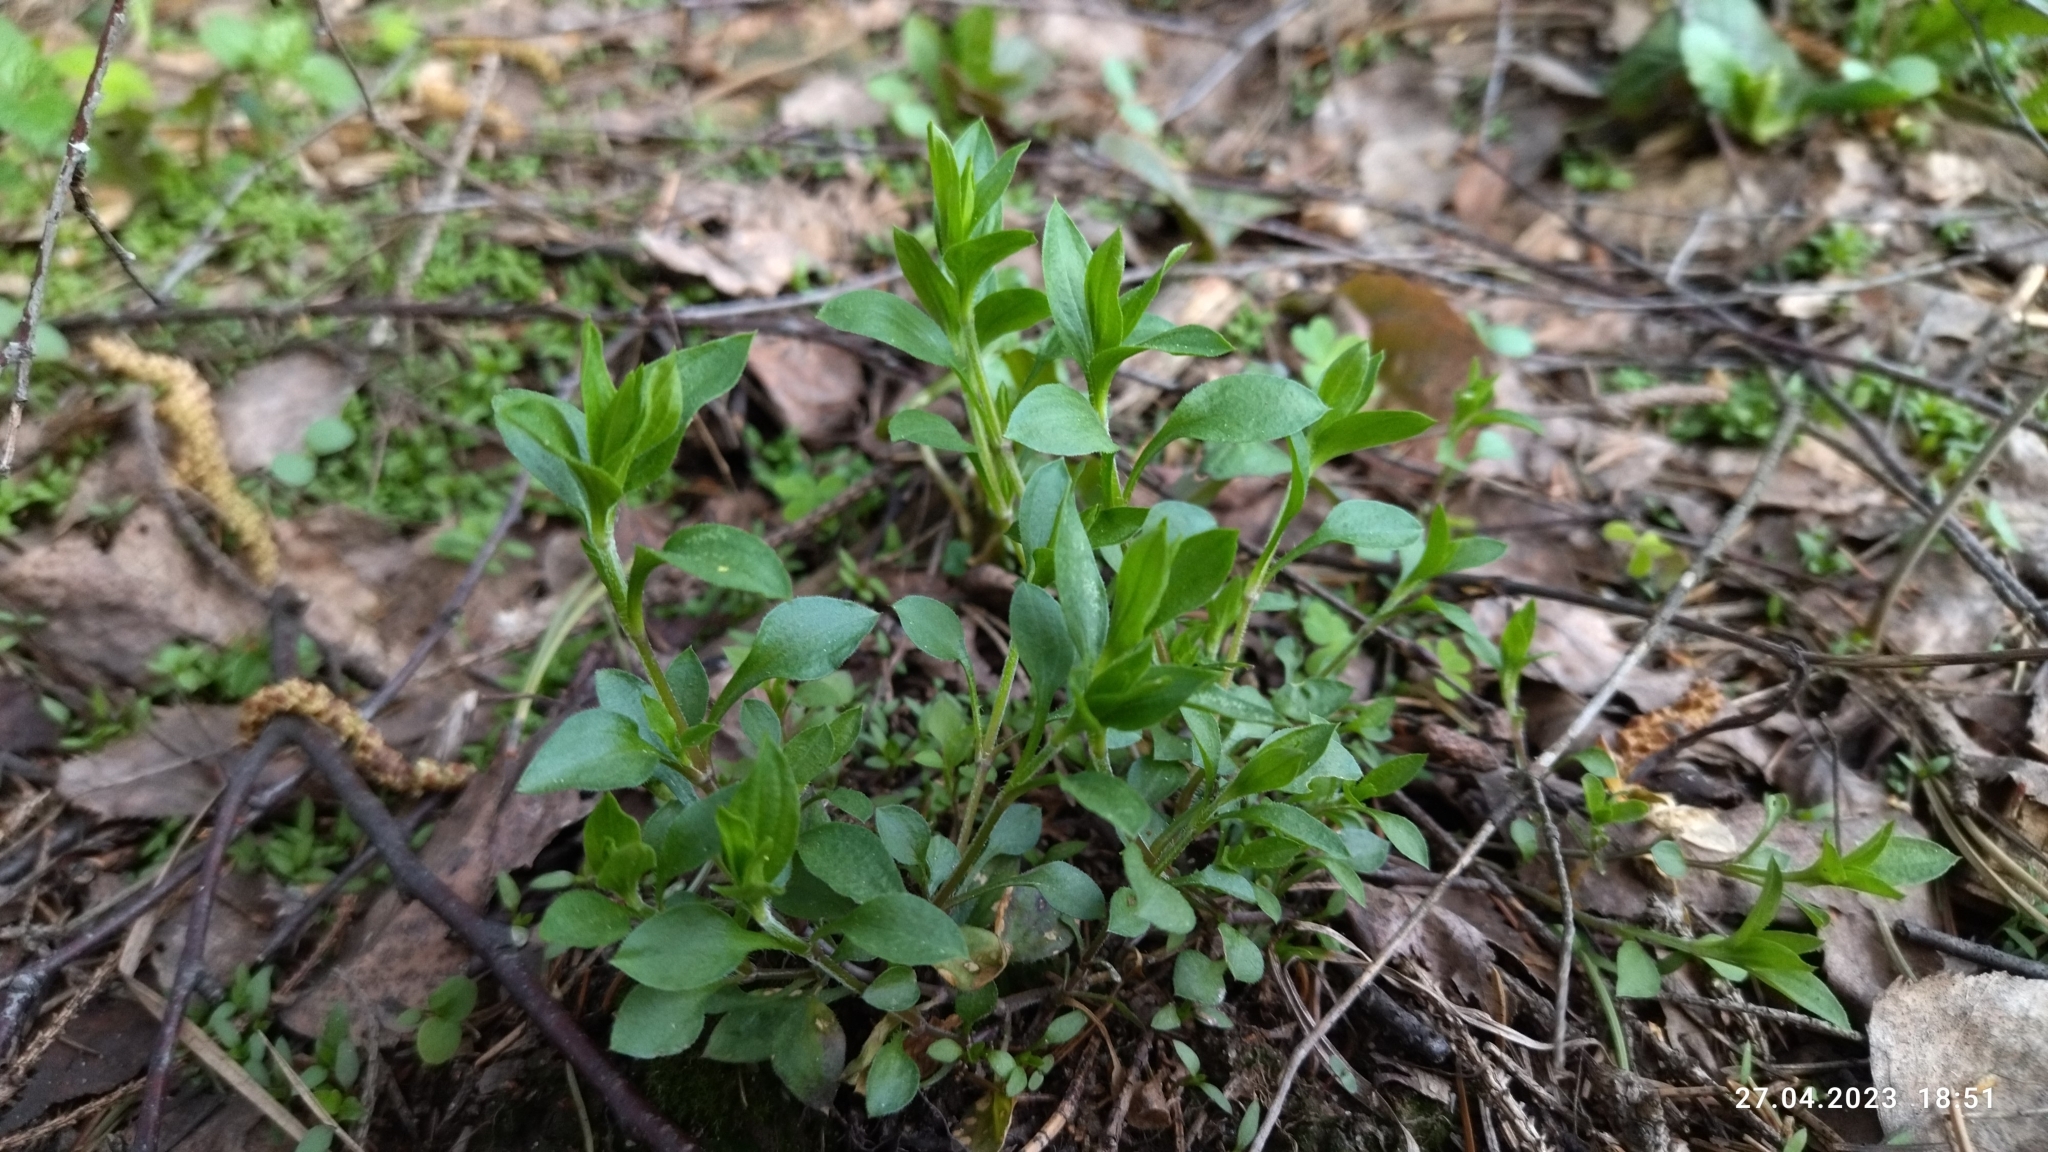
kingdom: Plantae
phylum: Tracheophyta
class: Magnoliopsida
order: Caryophyllales
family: Caryophyllaceae
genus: Moehringia
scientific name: Moehringia trinervia
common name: Three-nerved sandwort
